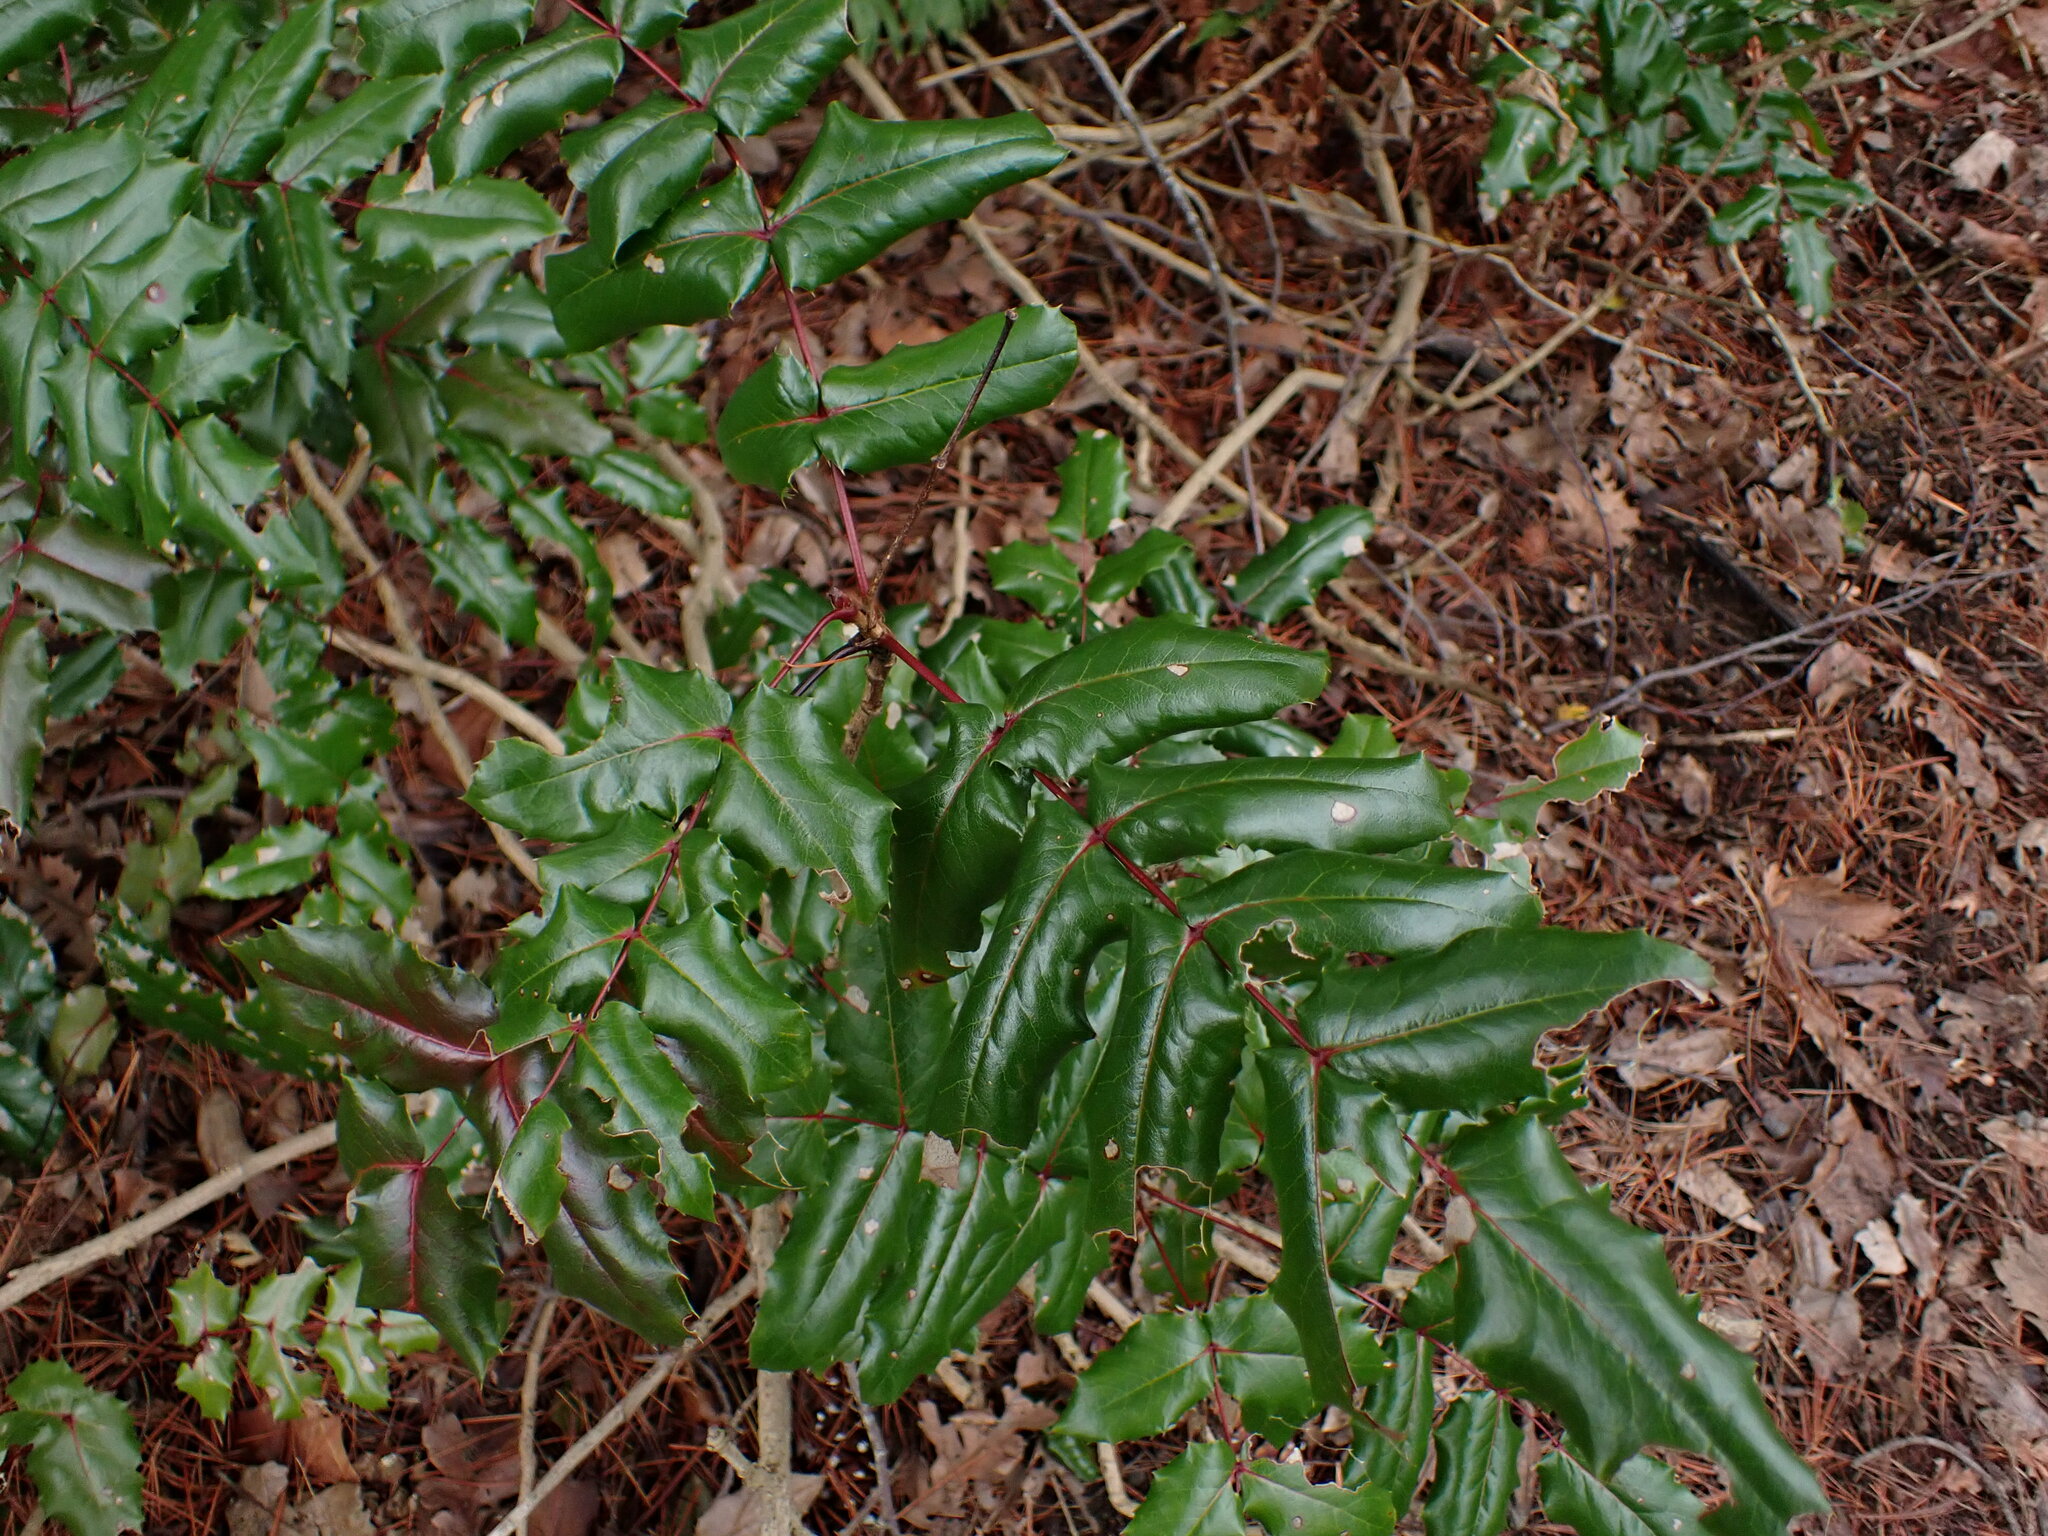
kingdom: Plantae
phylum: Tracheophyta
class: Magnoliopsida
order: Ranunculales
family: Berberidaceae
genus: Mahonia
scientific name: Mahonia aquifolium
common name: Oregon-grape
